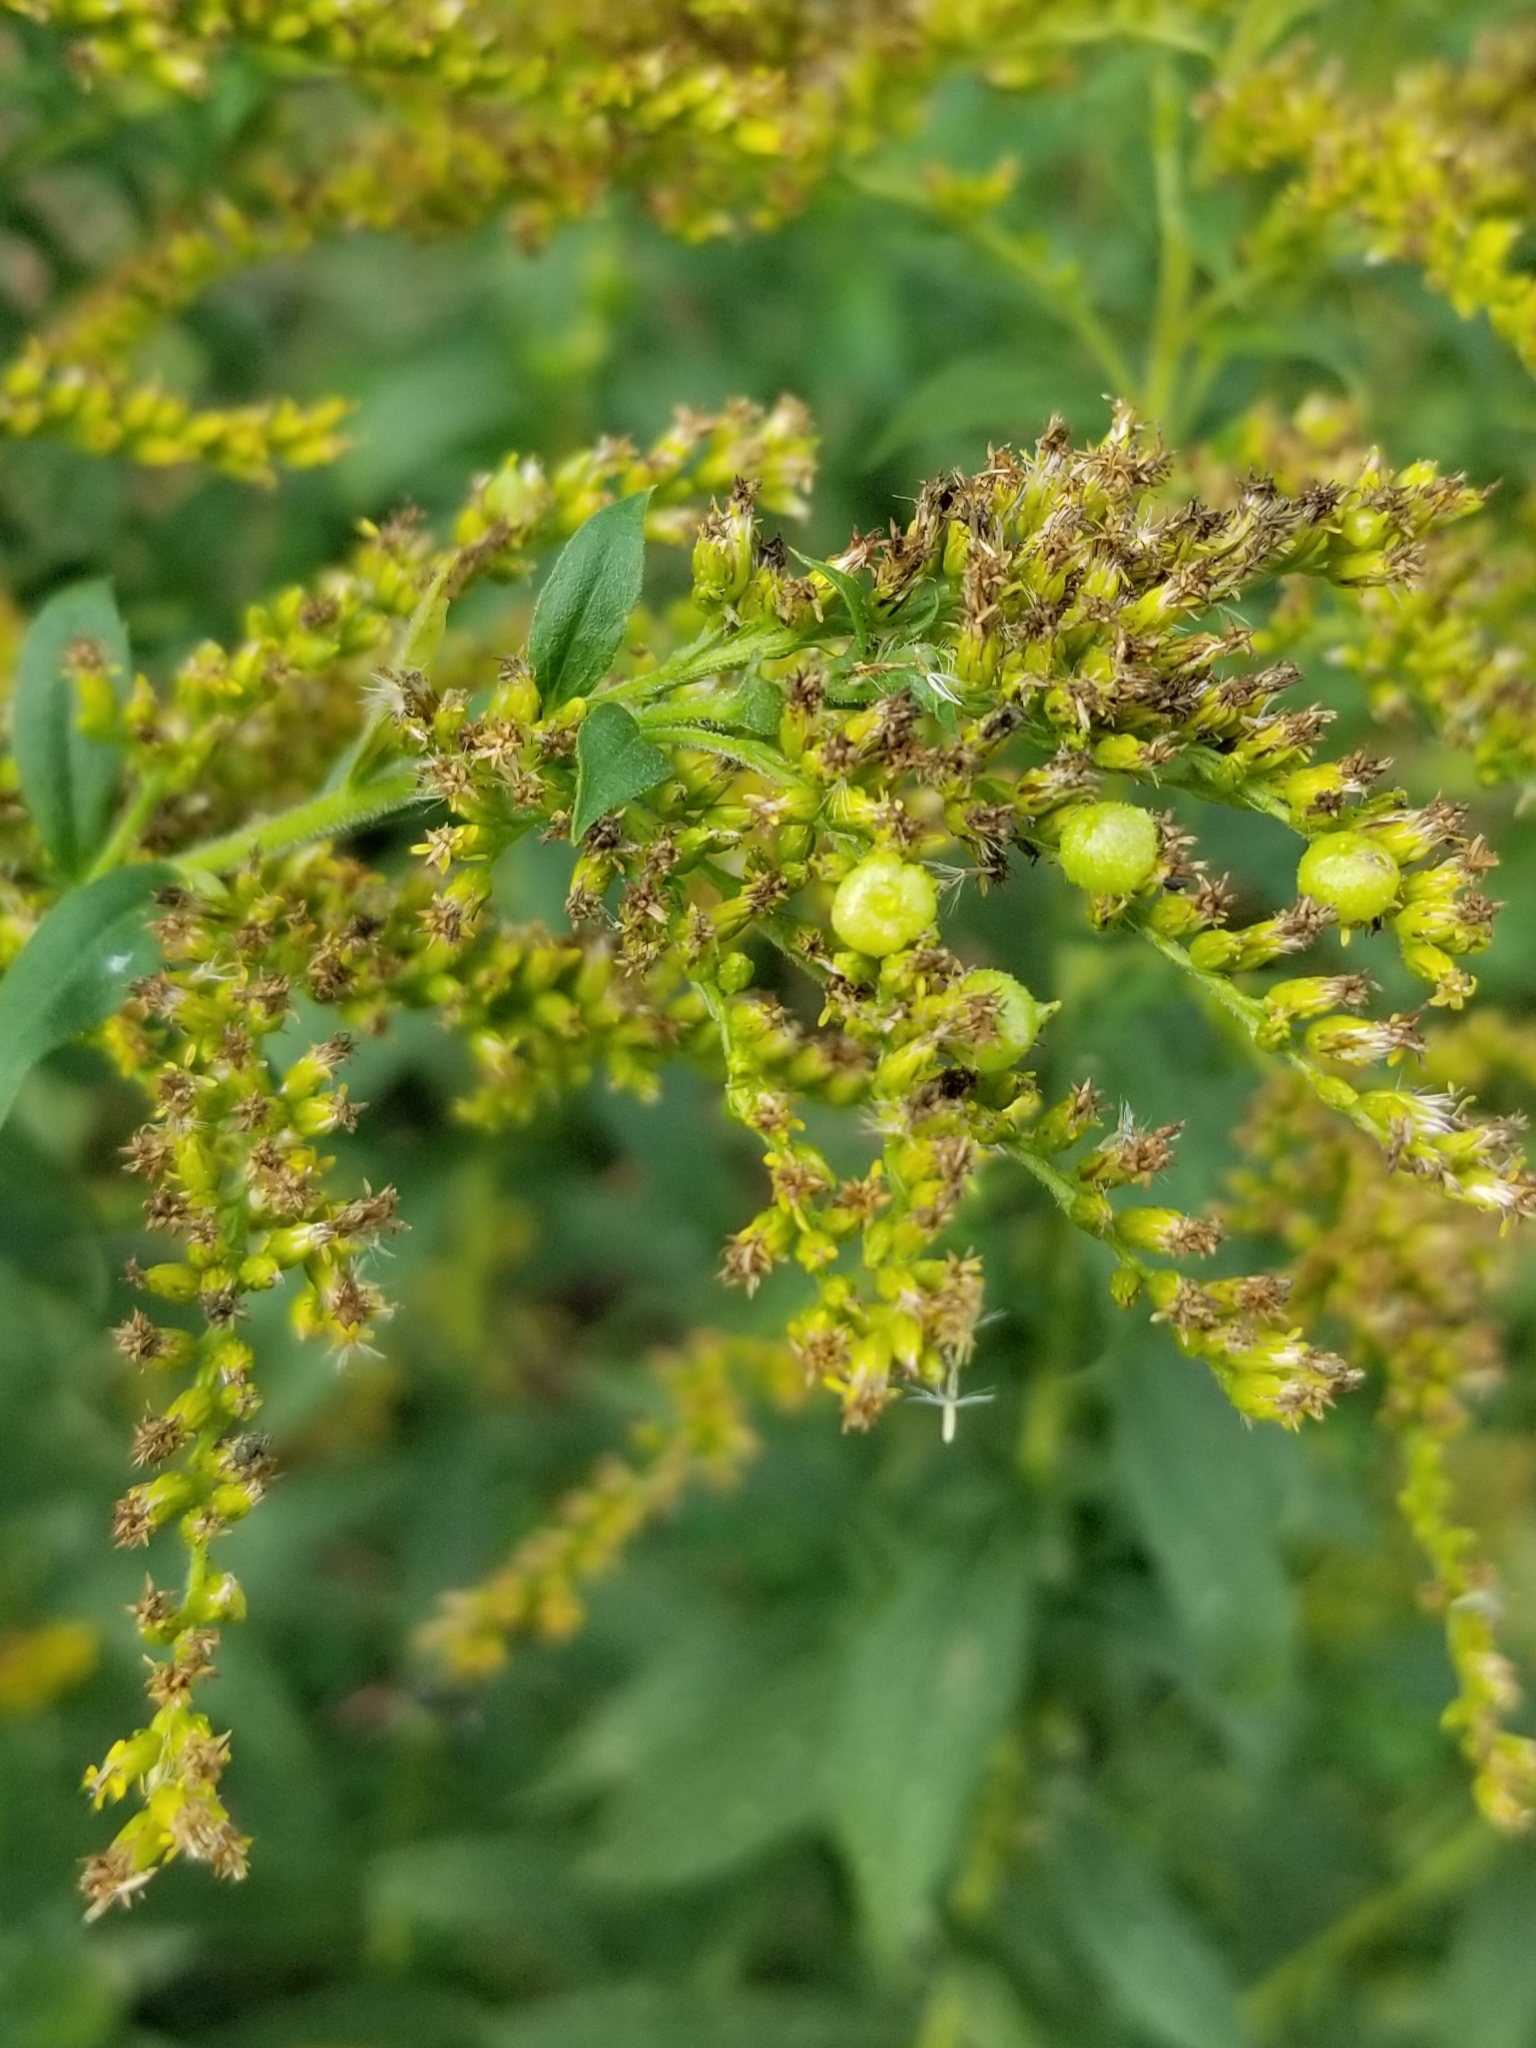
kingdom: Animalia
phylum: Arthropoda
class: Insecta
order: Diptera
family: Cecidomyiidae
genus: Schizomyia
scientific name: Schizomyia racemicola
